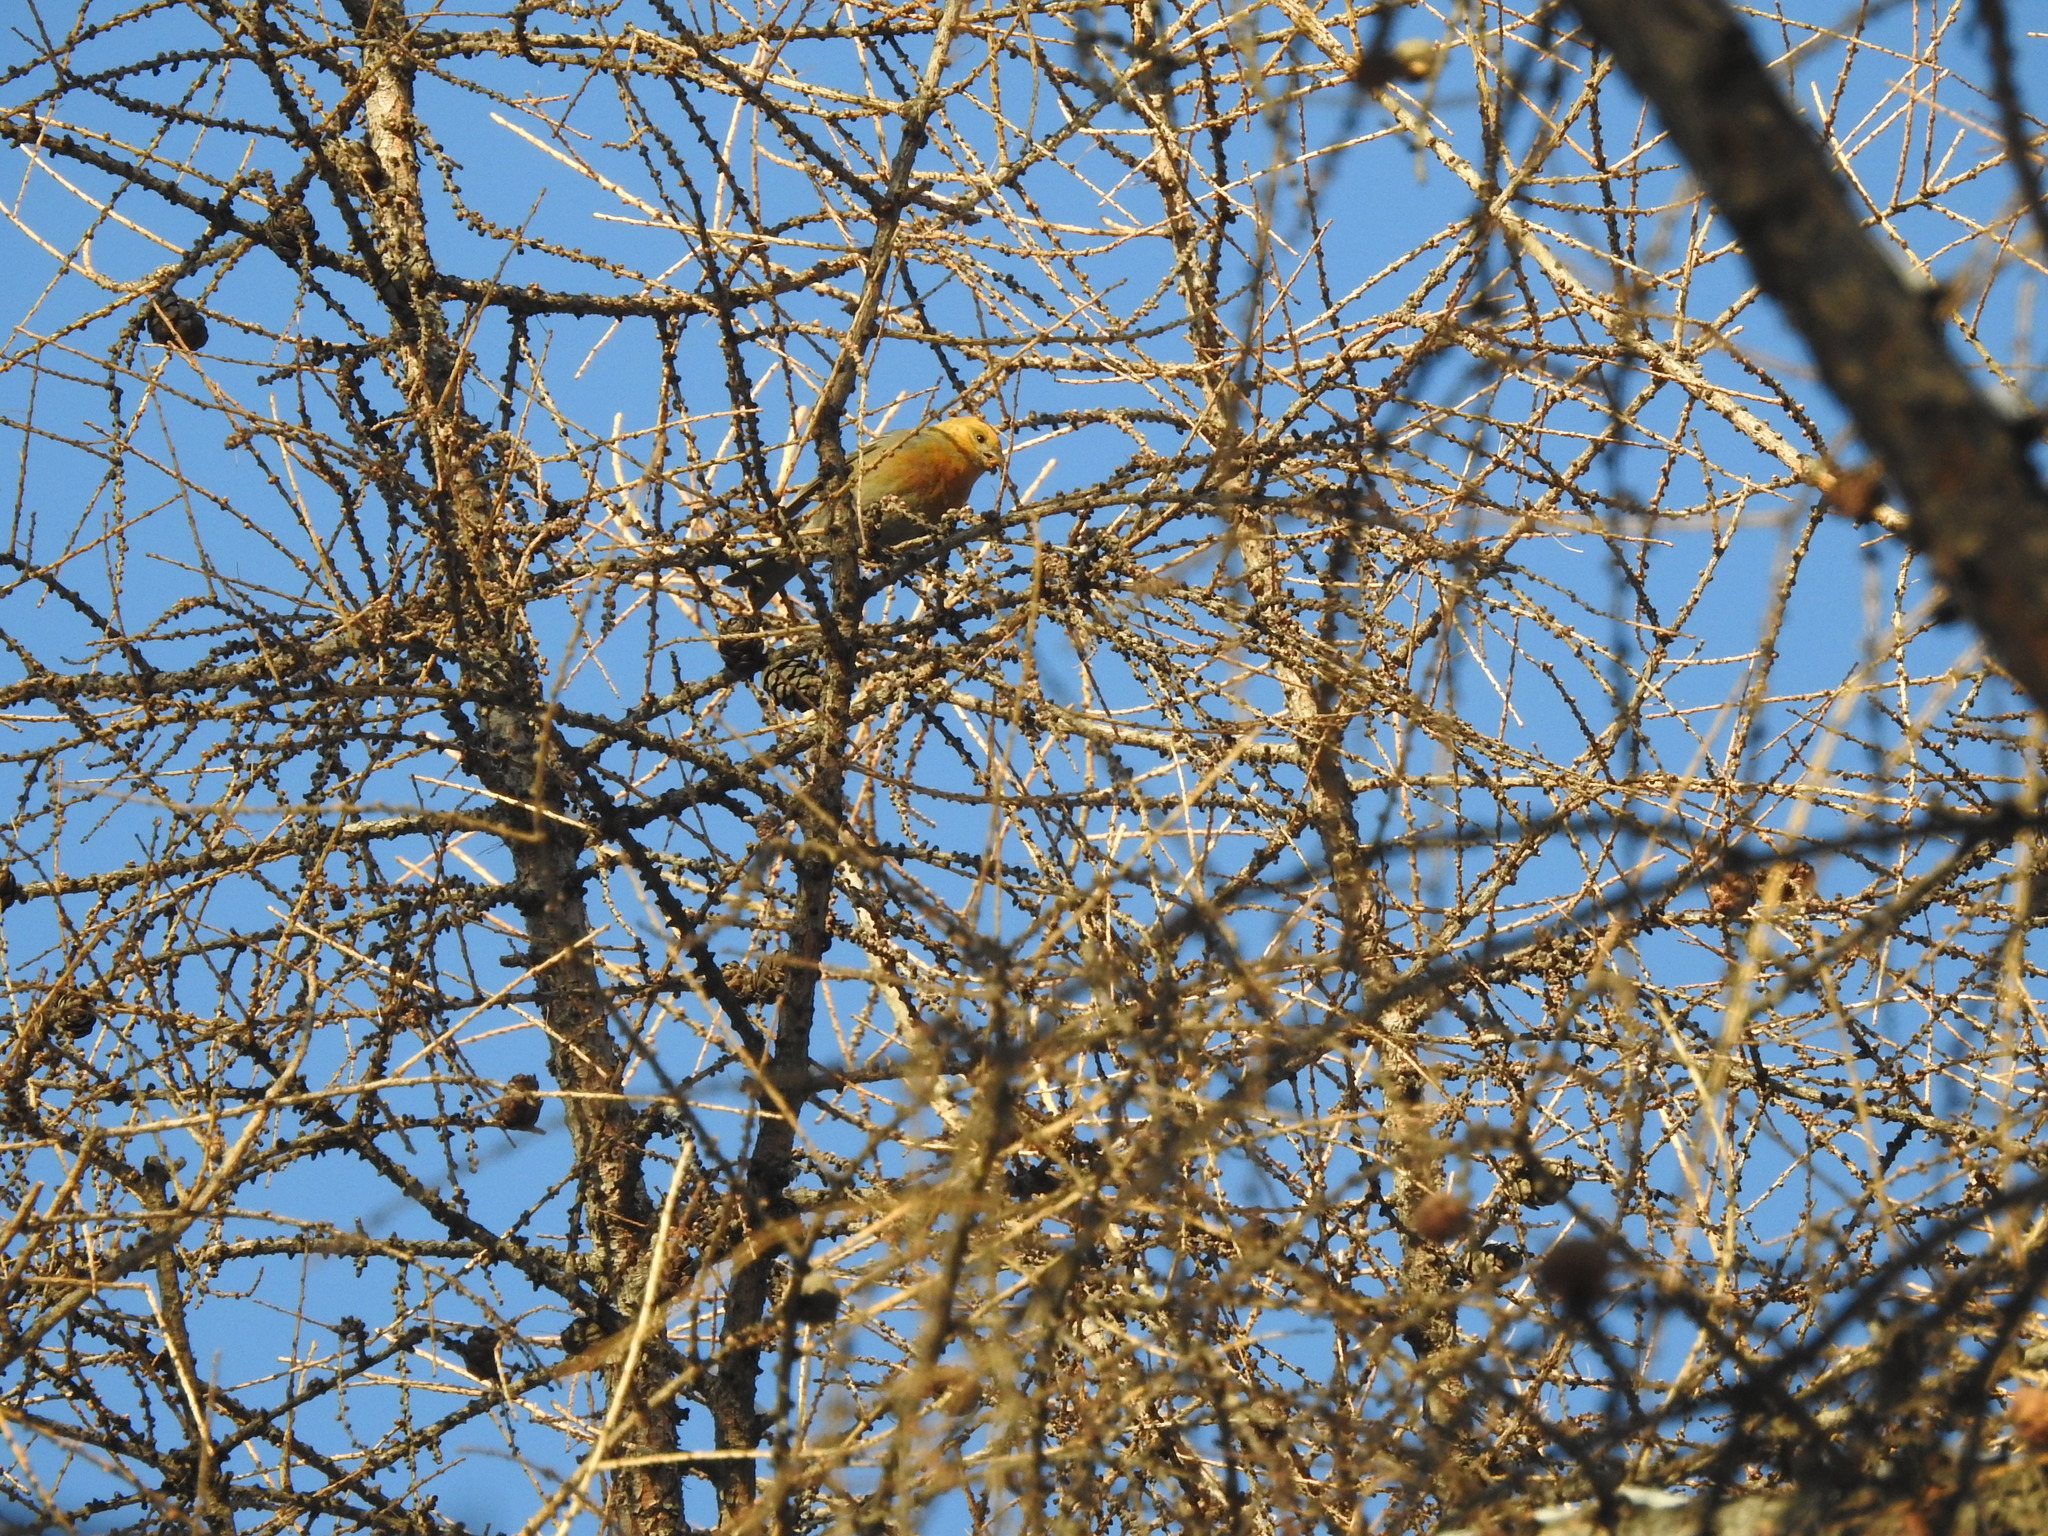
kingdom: Animalia
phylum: Chordata
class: Aves
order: Passeriformes
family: Fringillidae
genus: Pinicola
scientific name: Pinicola enucleator
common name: Pine grosbeak
